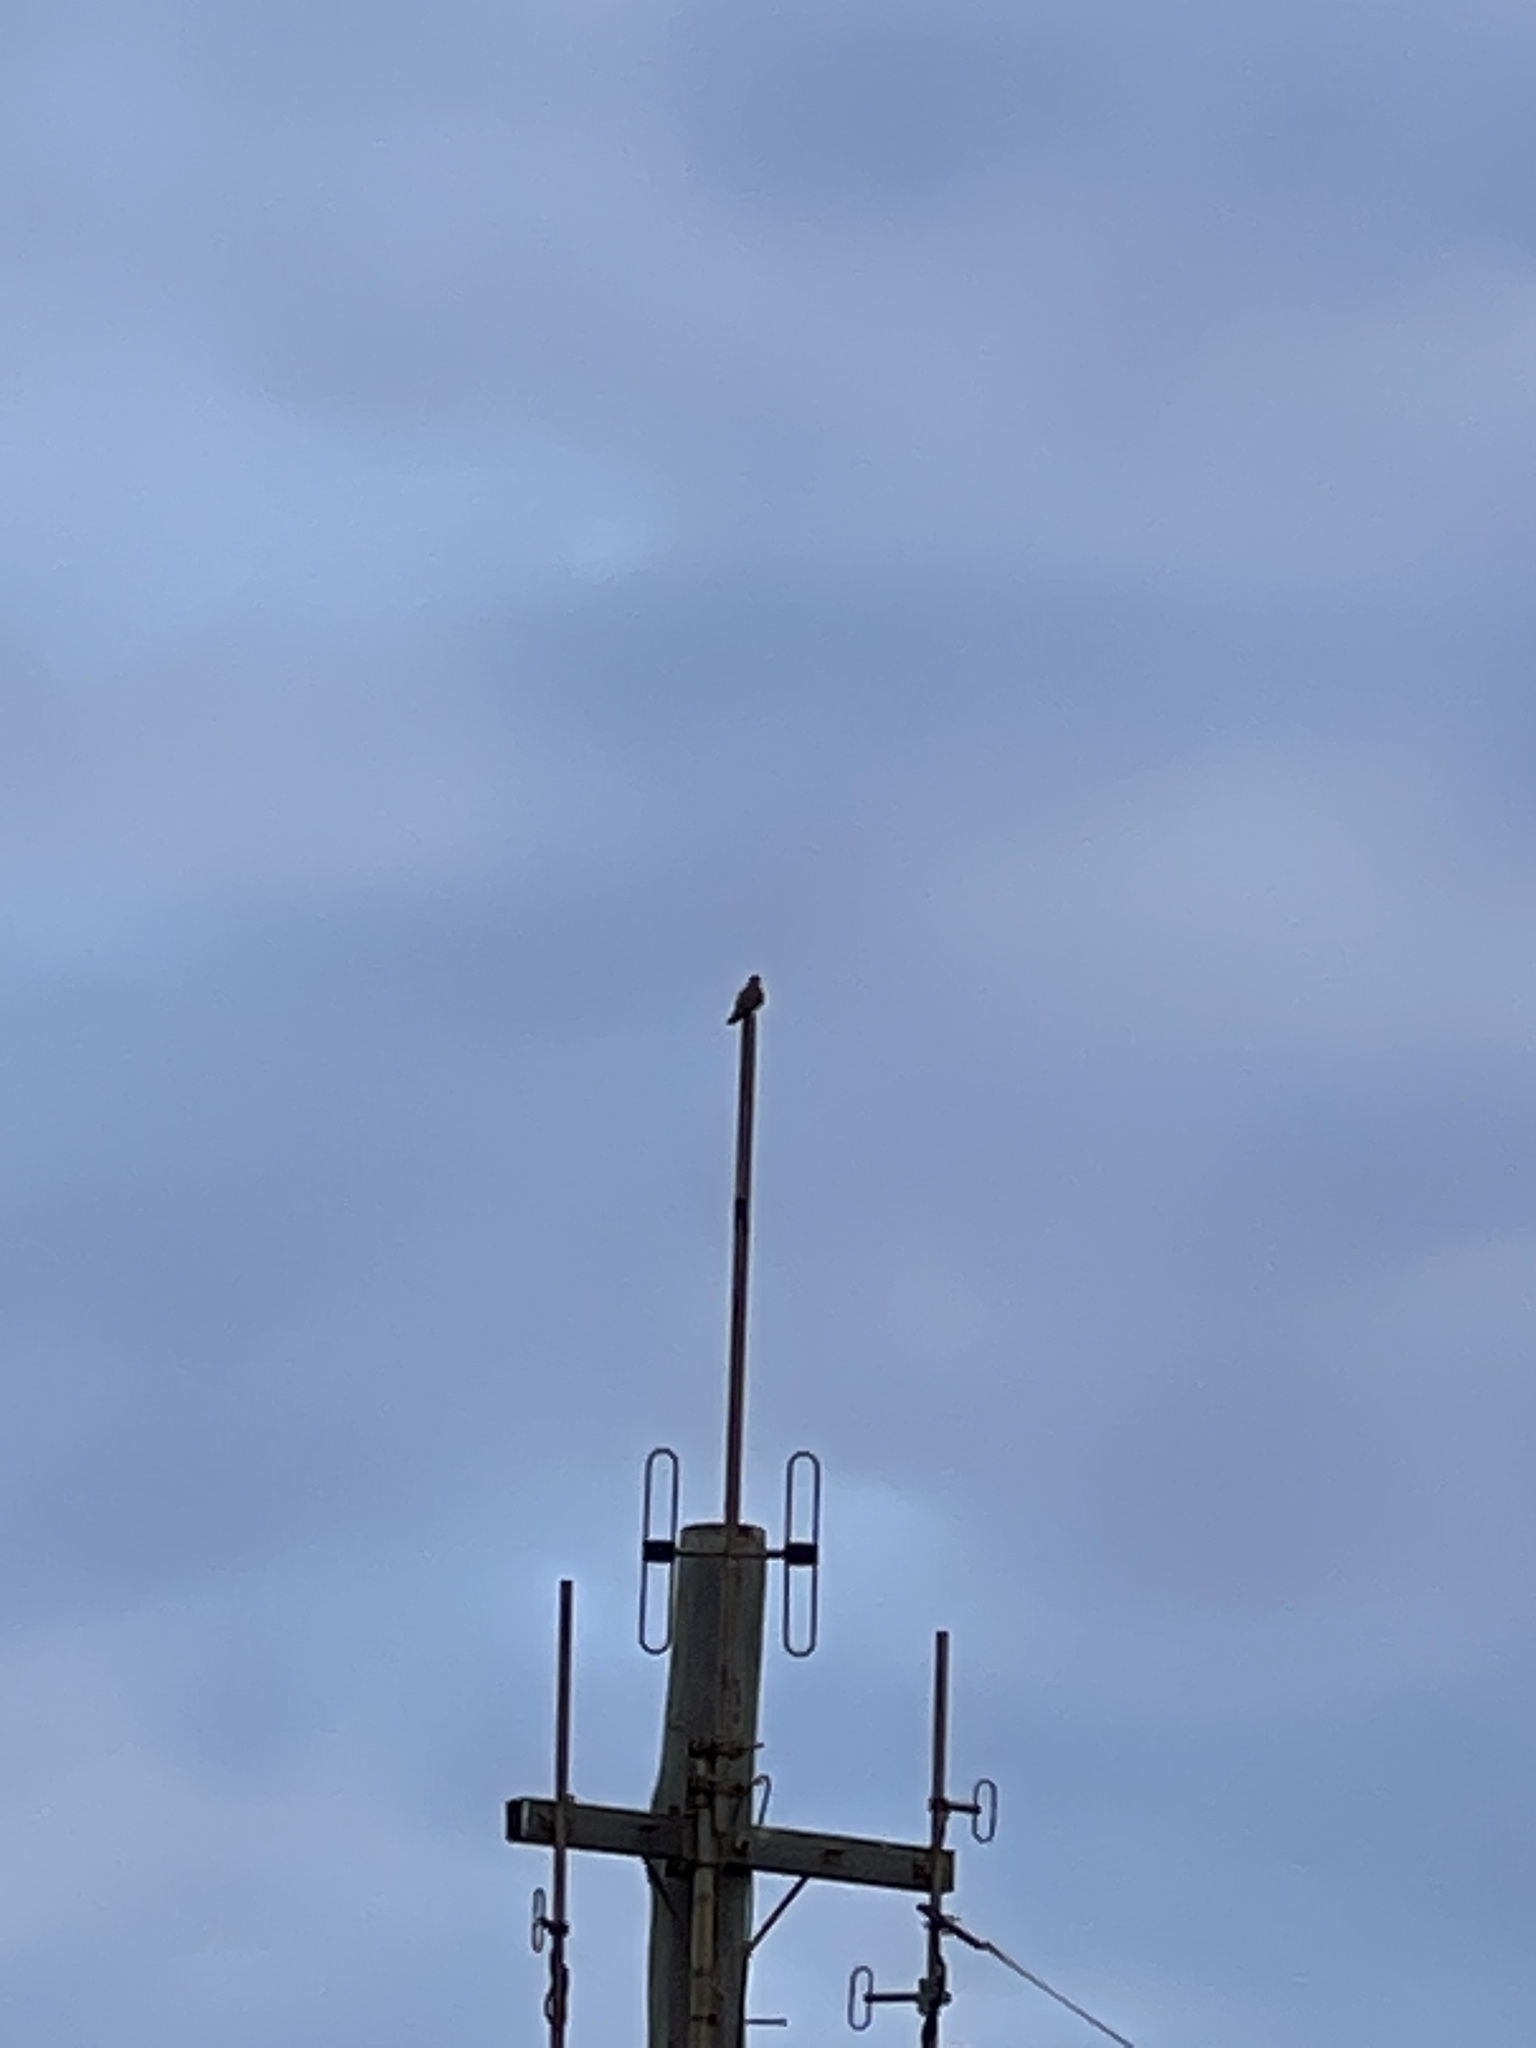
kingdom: Animalia
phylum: Chordata
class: Aves
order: Falconiformes
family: Falconidae
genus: Falco
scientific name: Falco cenchroides
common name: Nankeen kestrel
